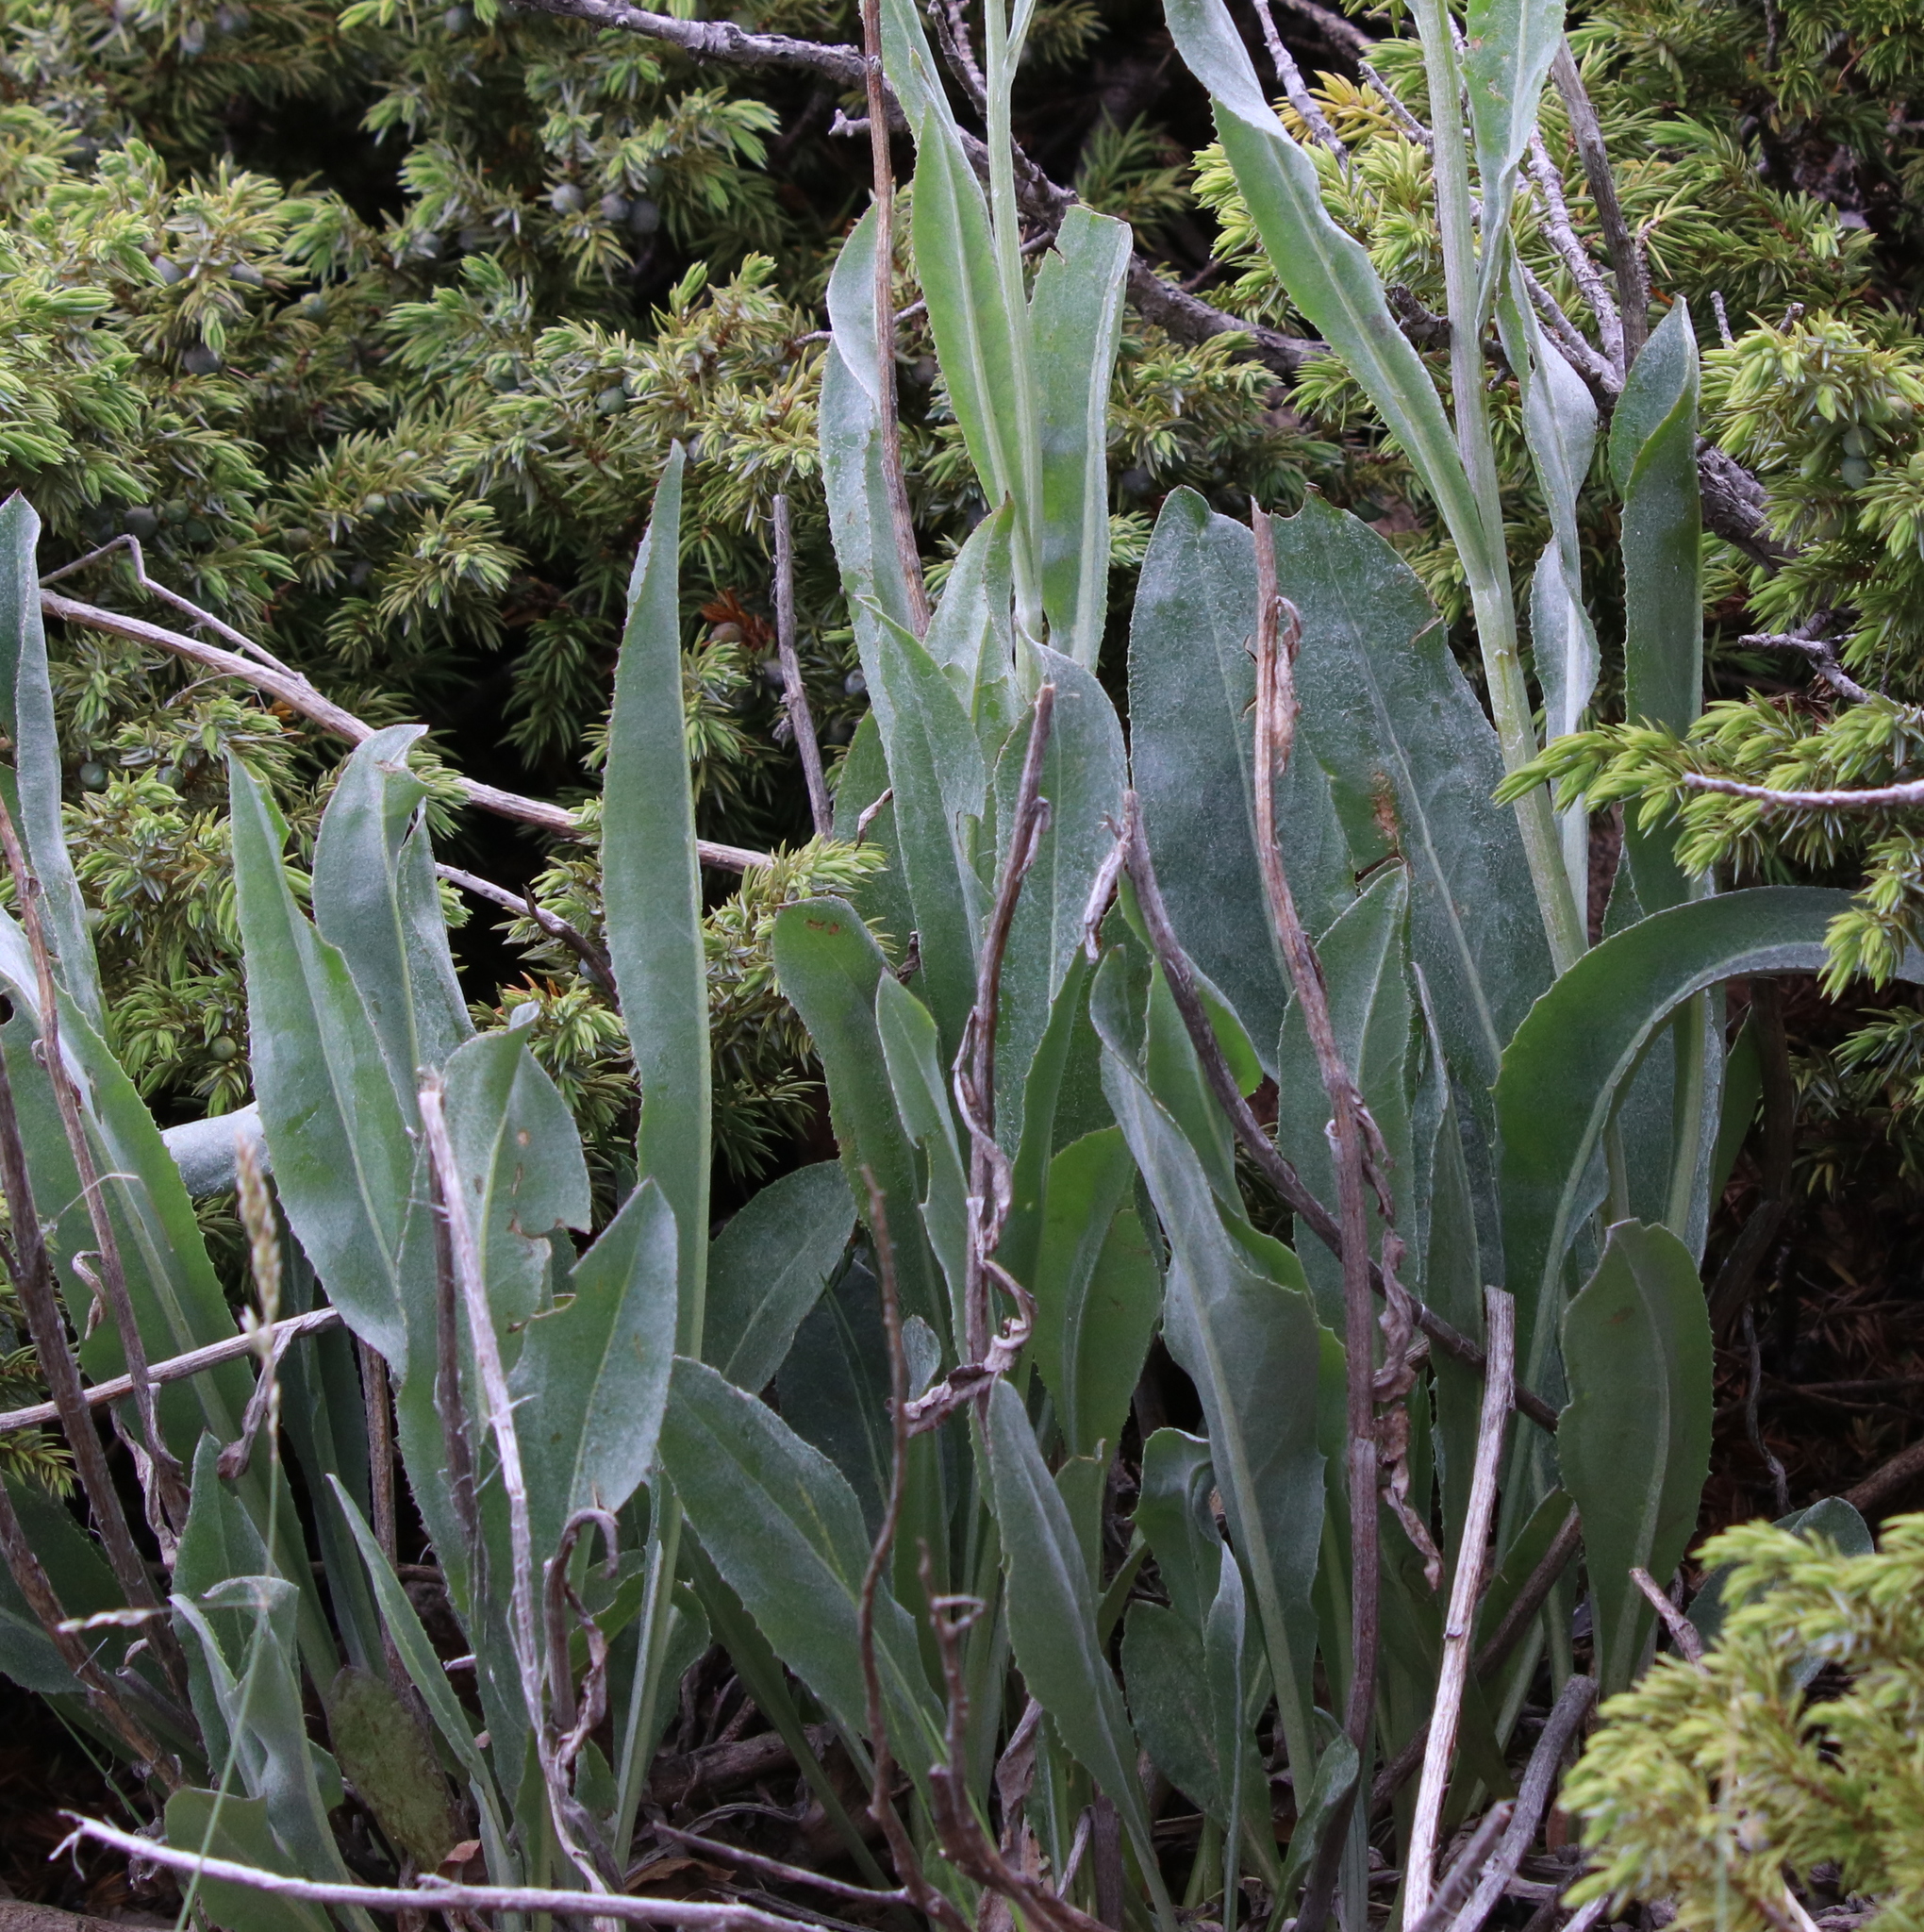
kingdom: Plantae
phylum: Tracheophyta
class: Magnoliopsida
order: Asterales
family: Asteraceae
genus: Senecio
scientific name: Senecio atratus
